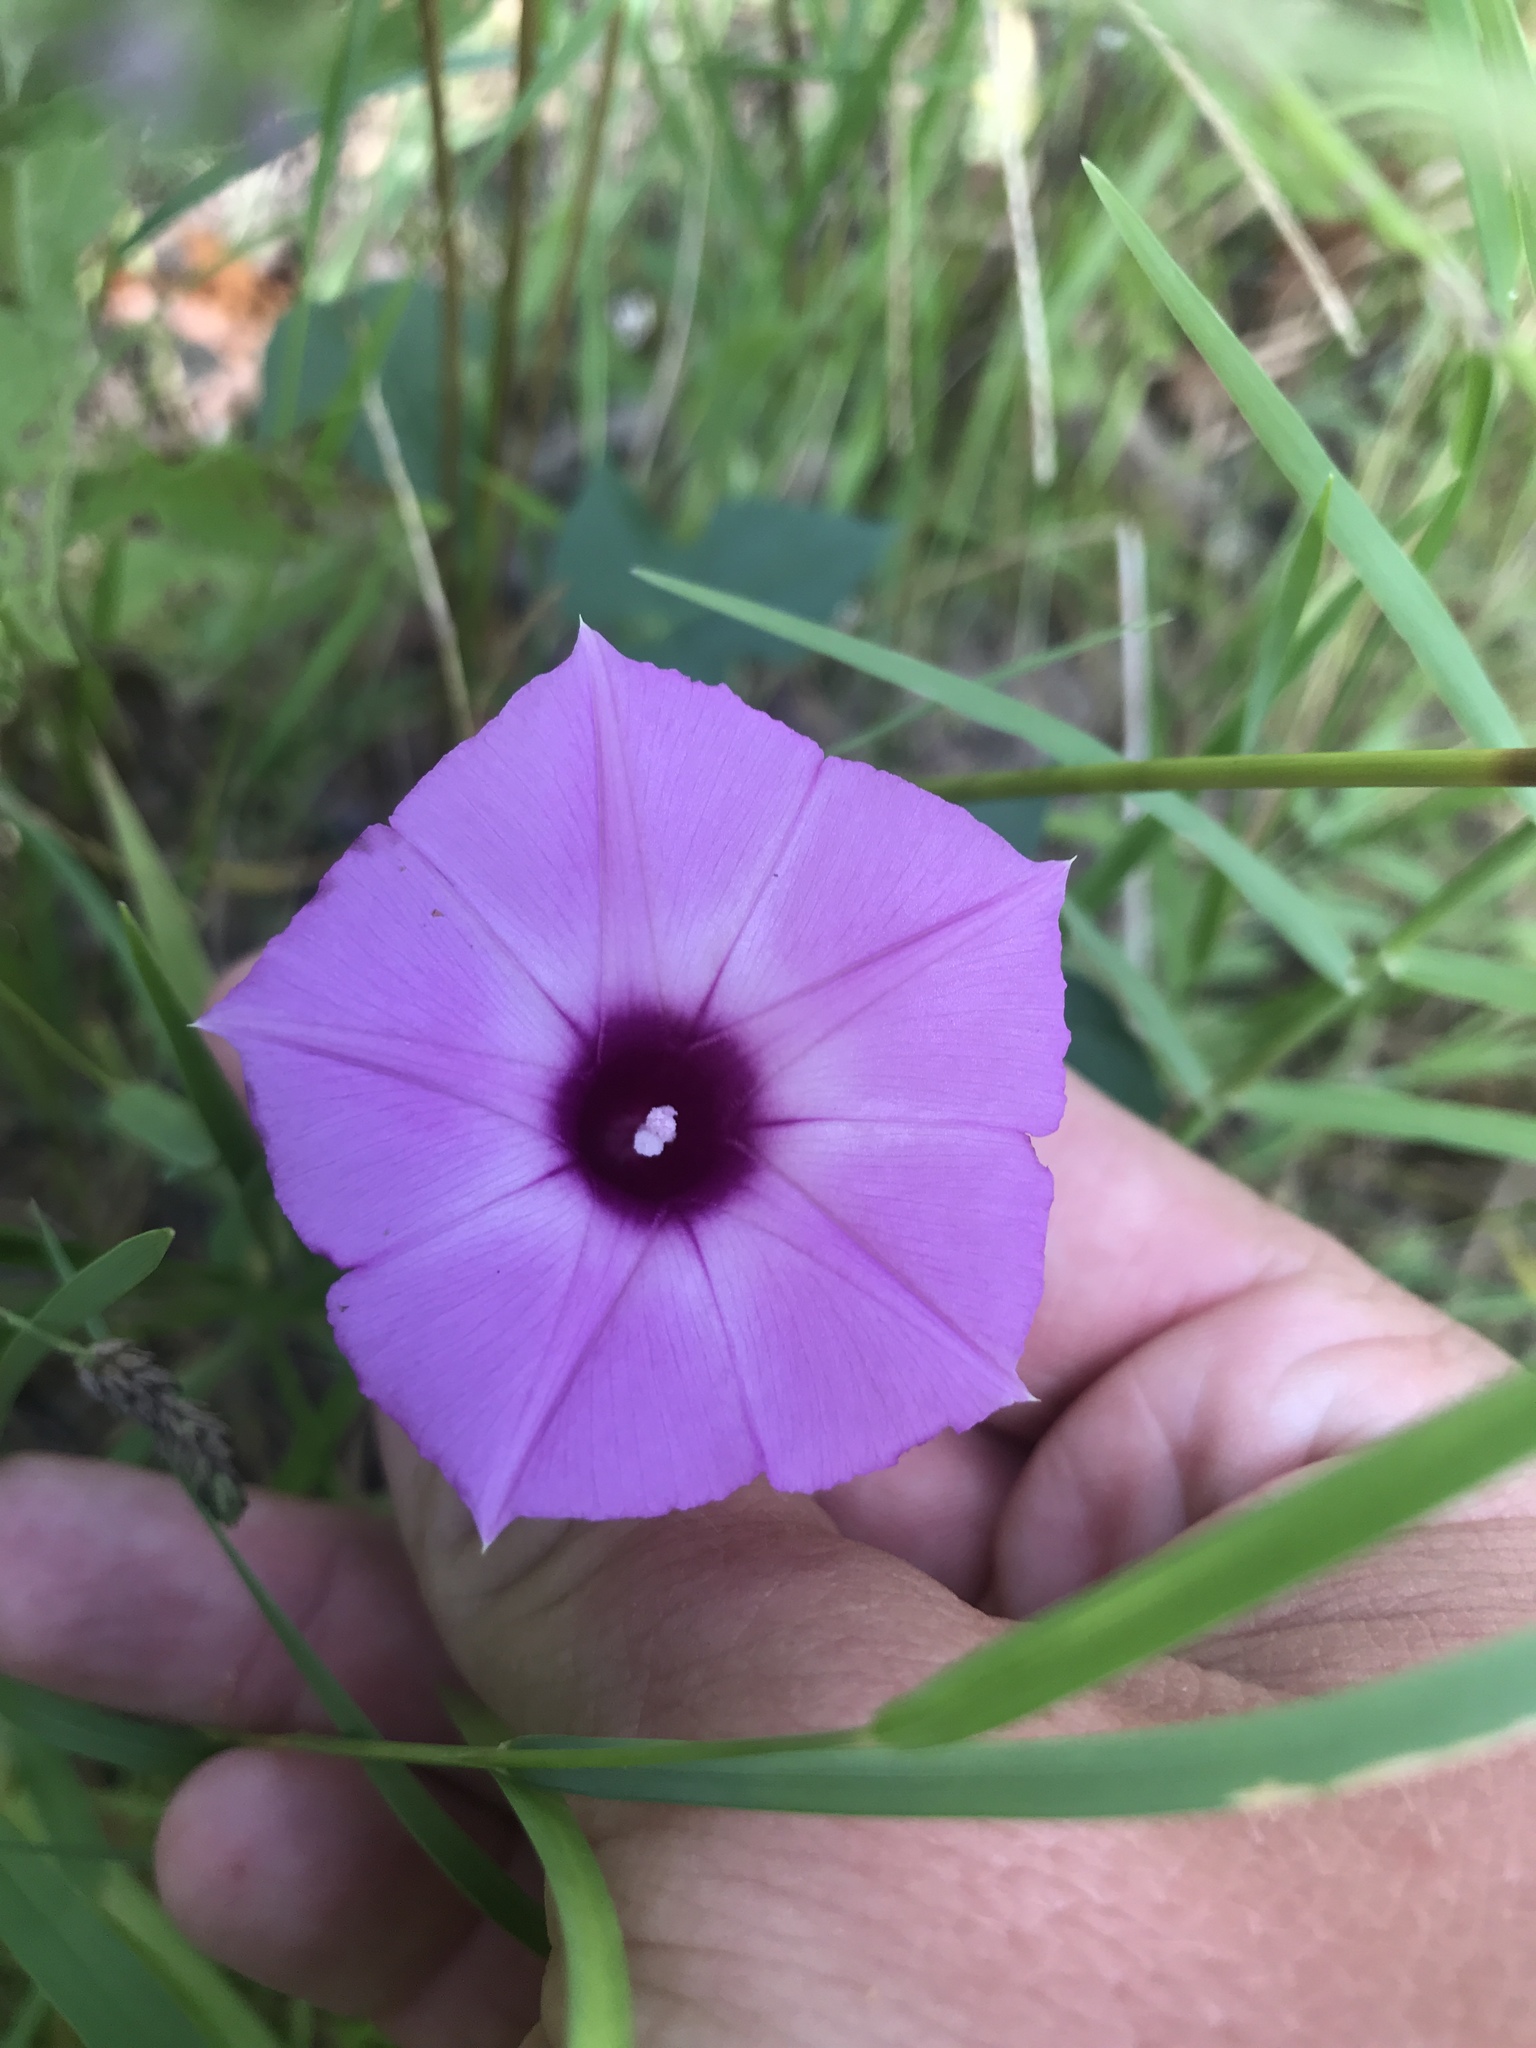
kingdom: Plantae
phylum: Tracheophyta
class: Magnoliopsida
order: Solanales
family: Convolvulaceae
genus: Ipomoea
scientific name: Ipomoea cordatotriloba
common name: Cotton morning glory
